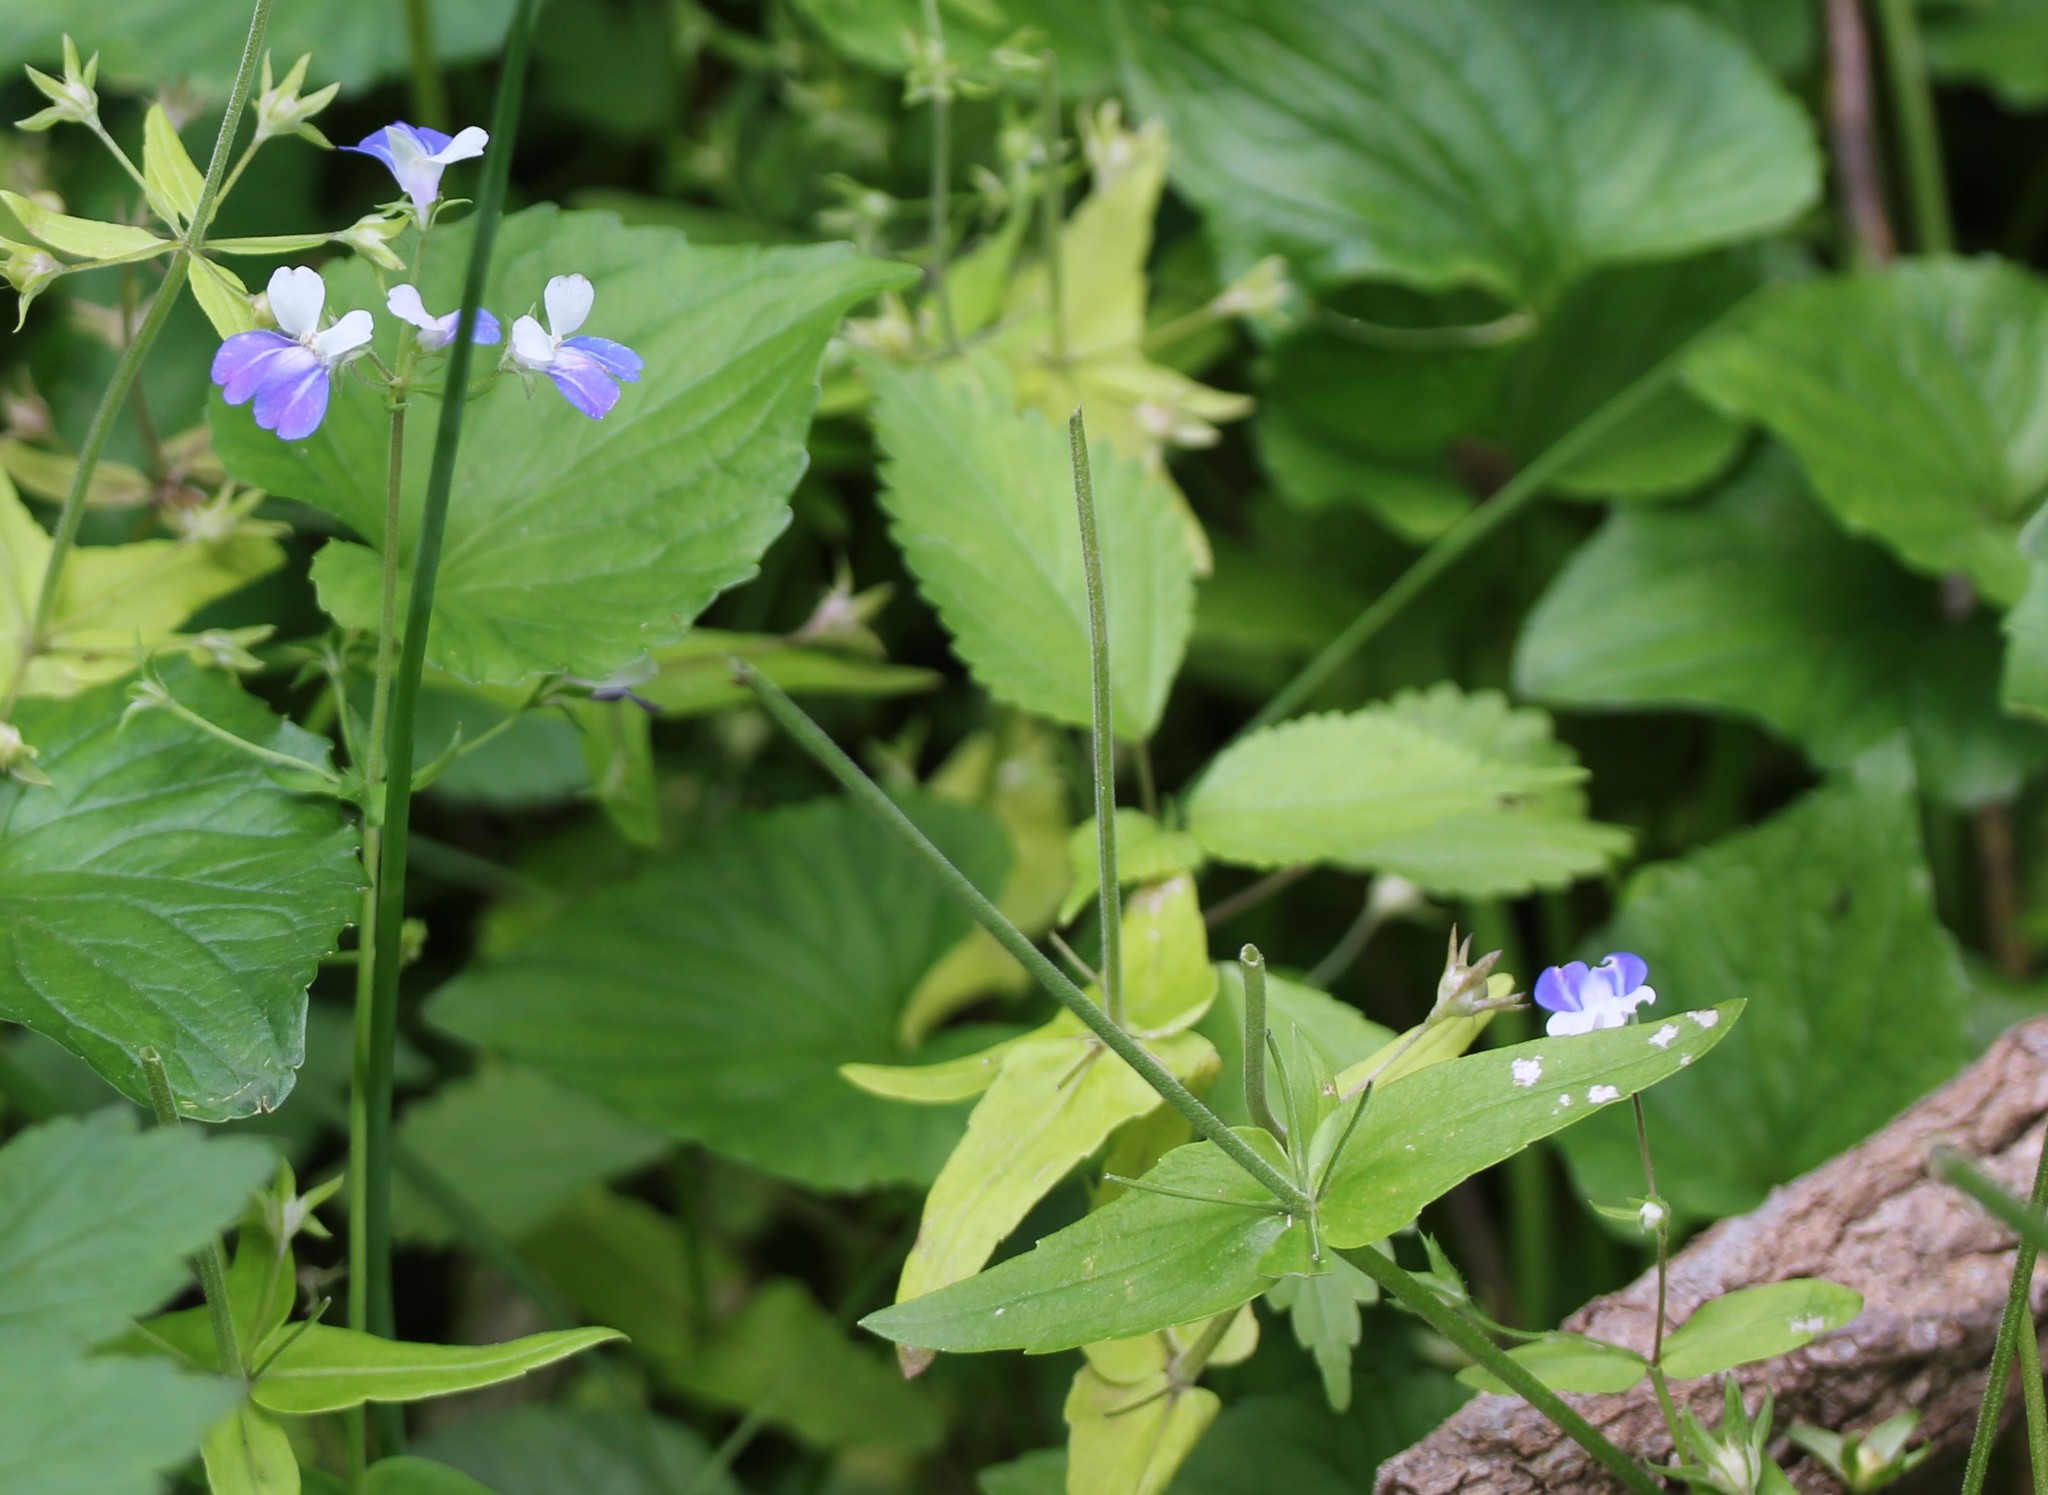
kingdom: Plantae
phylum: Tracheophyta
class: Magnoliopsida
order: Lamiales
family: Plantaginaceae
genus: Collinsia
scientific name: Collinsia verna
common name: Broad-leaved collinsia
